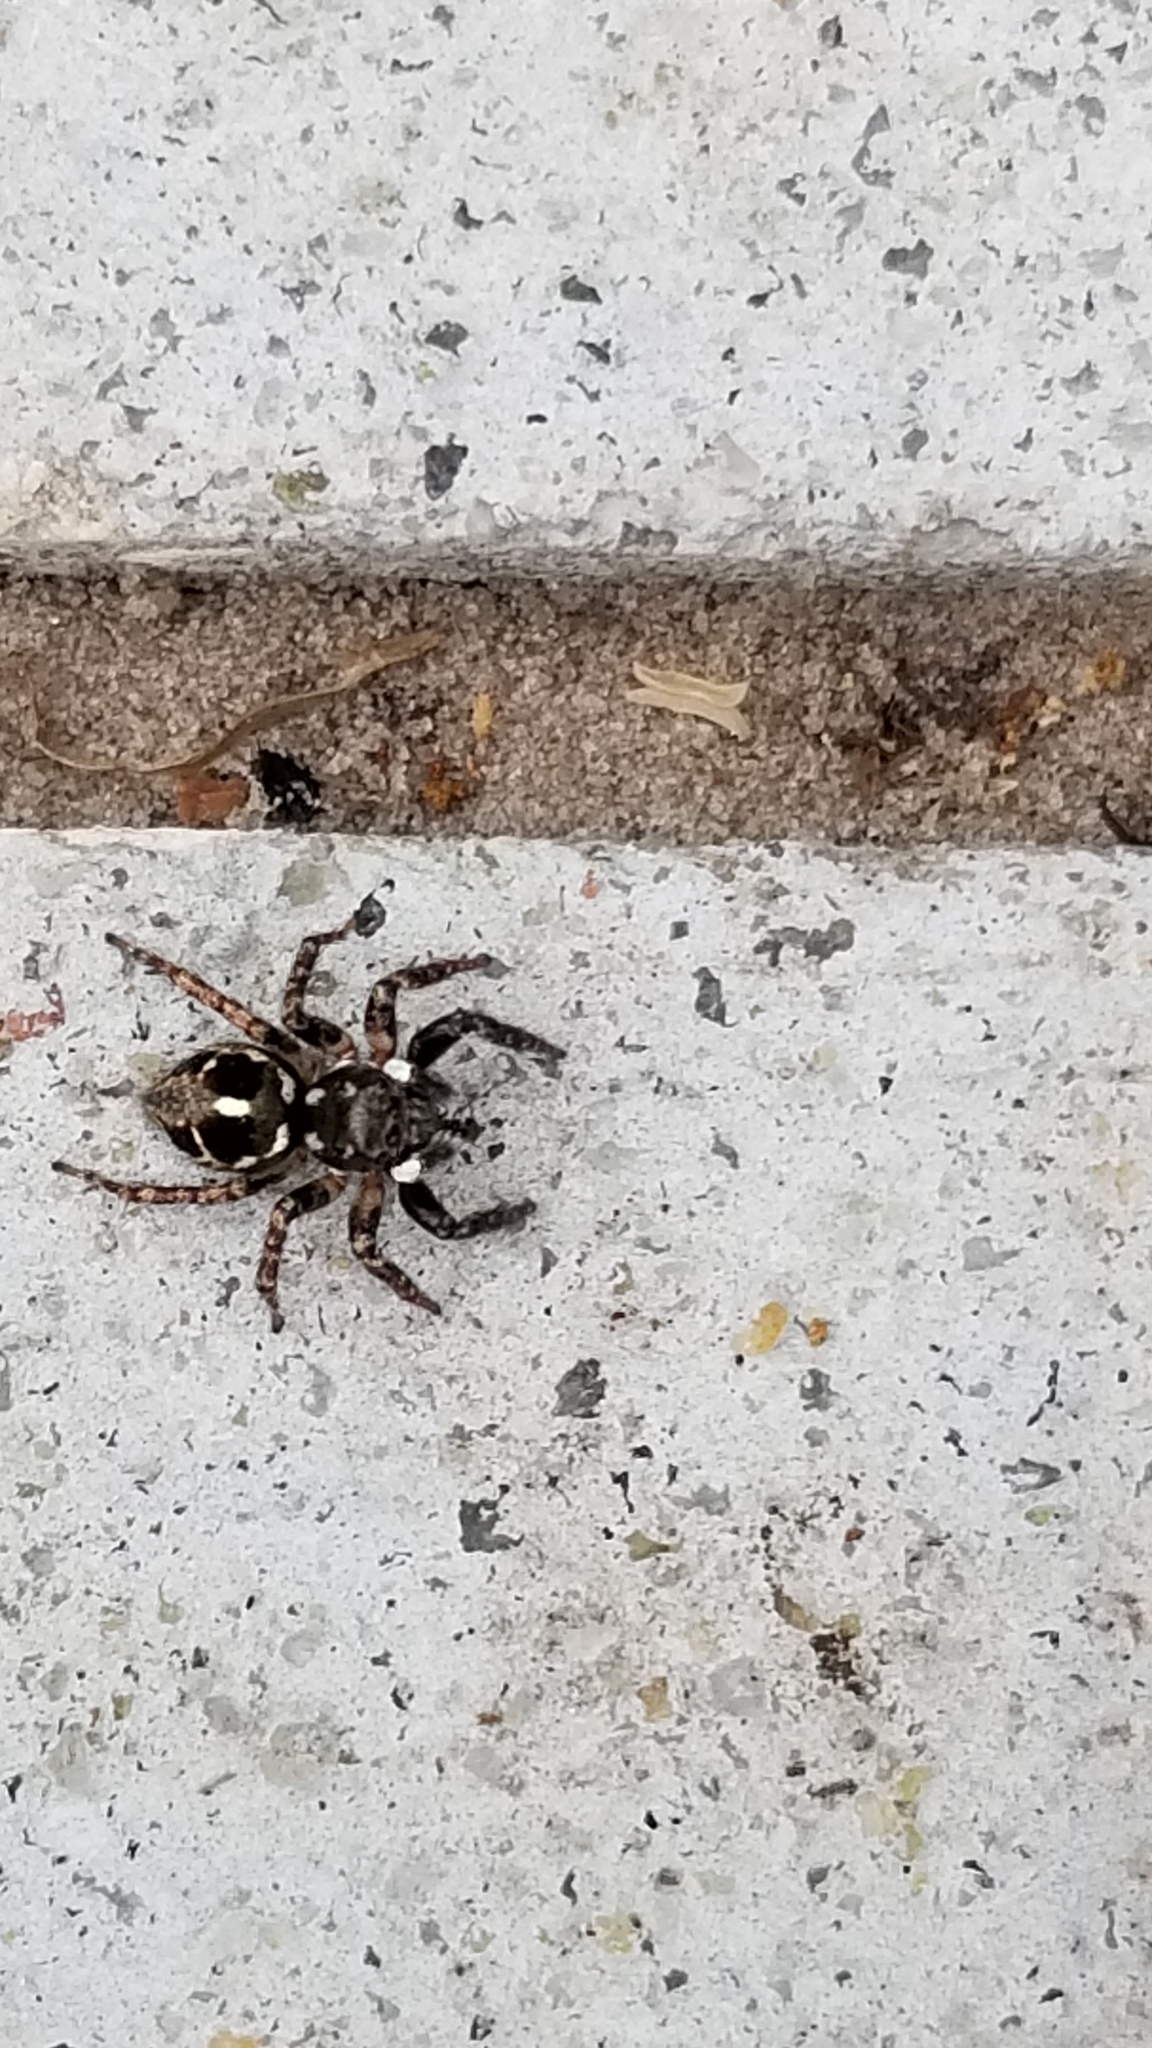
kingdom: Animalia
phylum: Arthropoda
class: Arachnida
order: Araneae
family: Salticidae
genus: Anasaitis
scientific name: Anasaitis canosa
